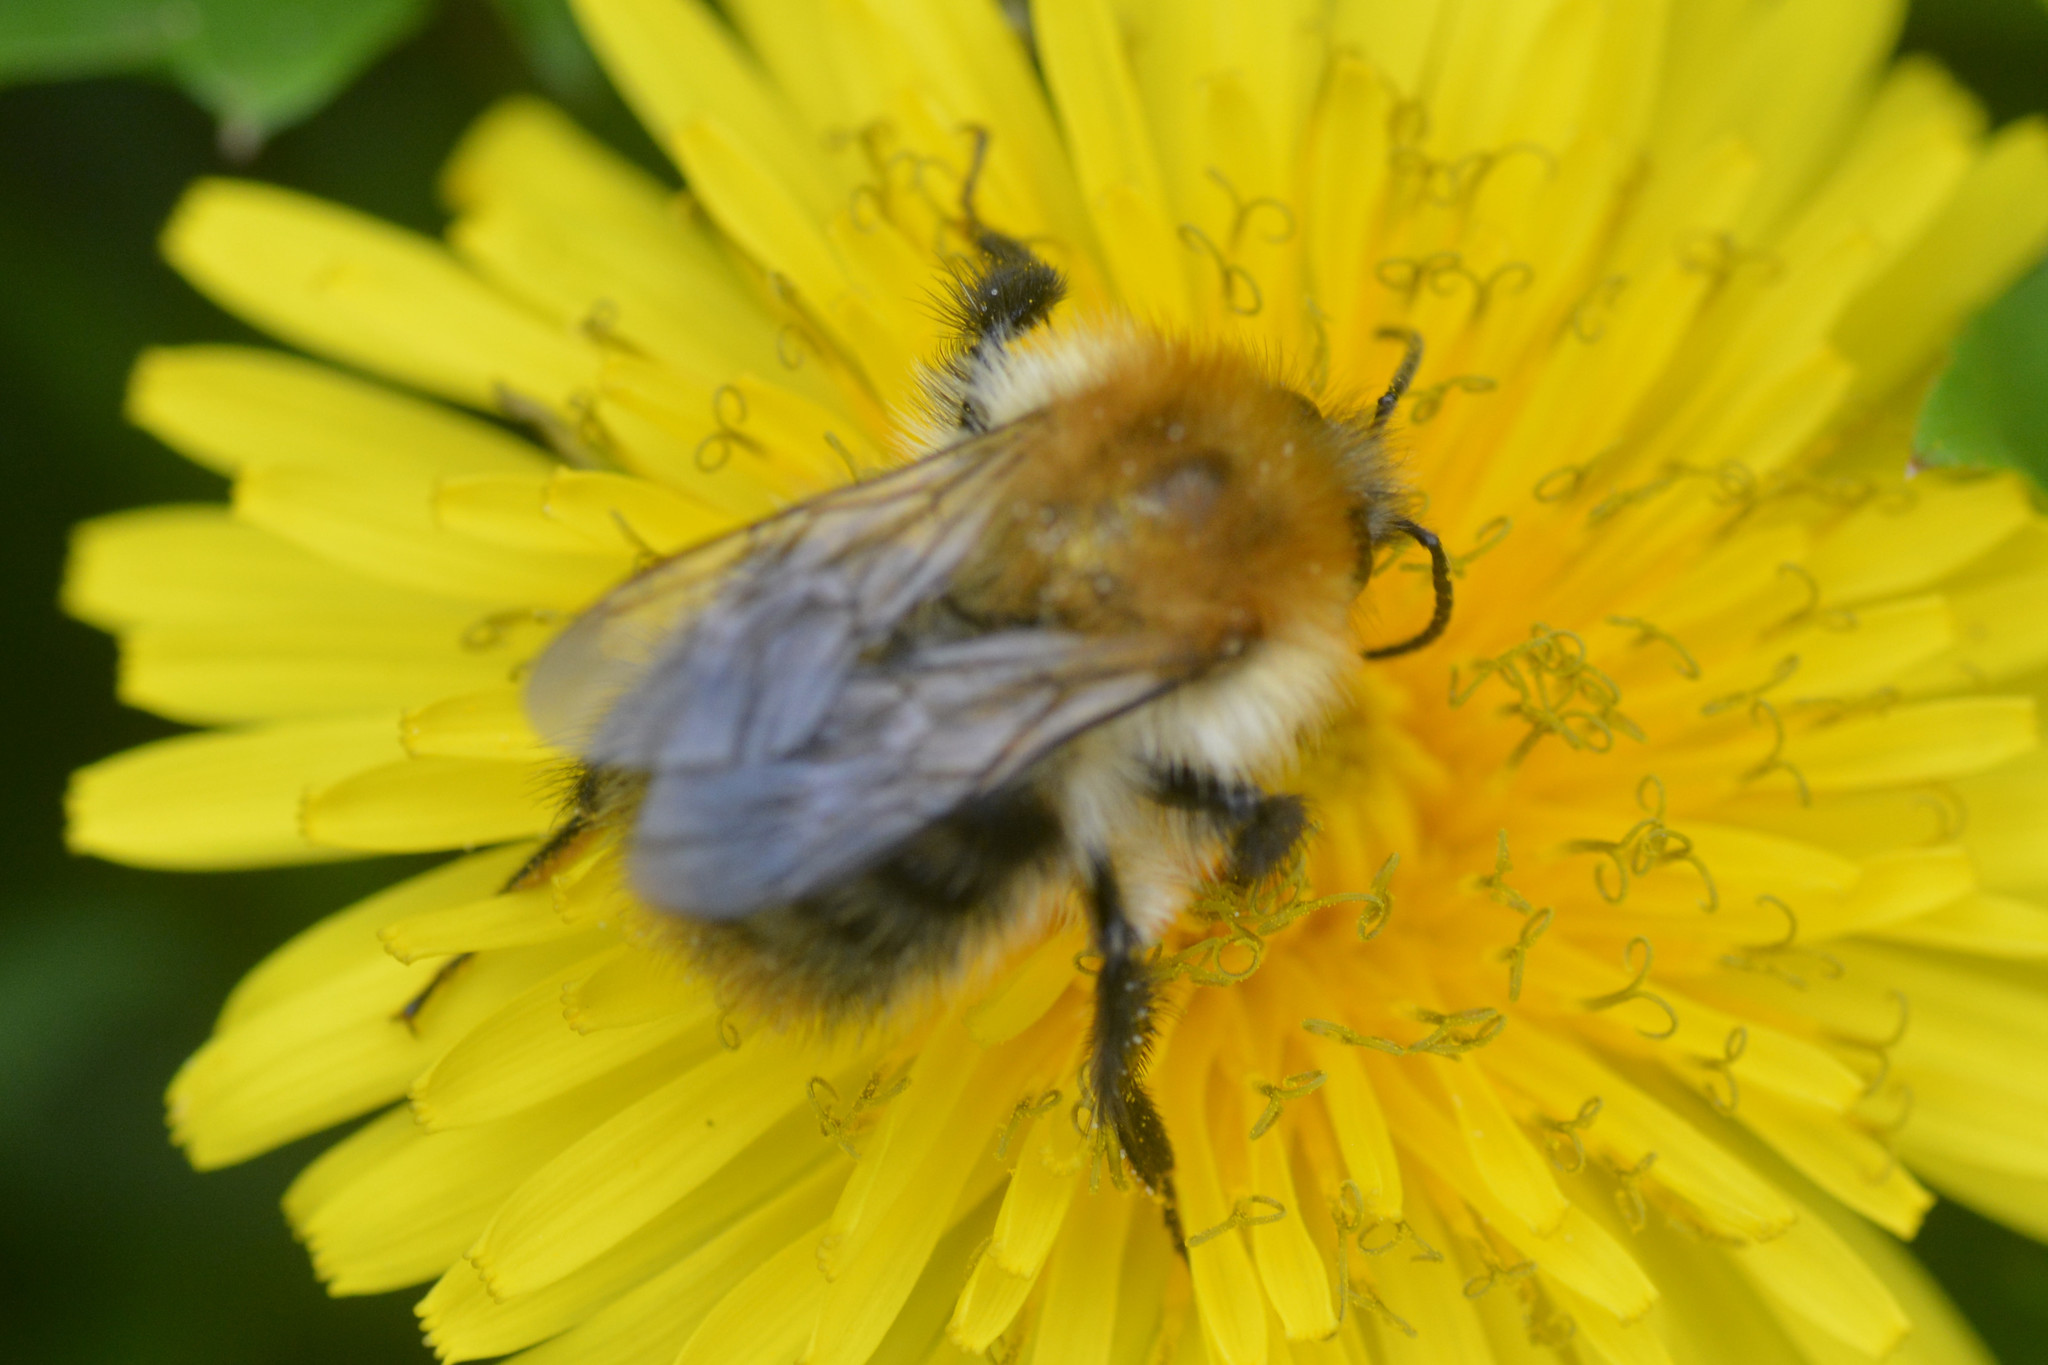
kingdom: Animalia
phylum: Arthropoda
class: Insecta
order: Hymenoptera
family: Apidae
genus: Bombus
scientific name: Bombus pascuorum
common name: Common carder bee
